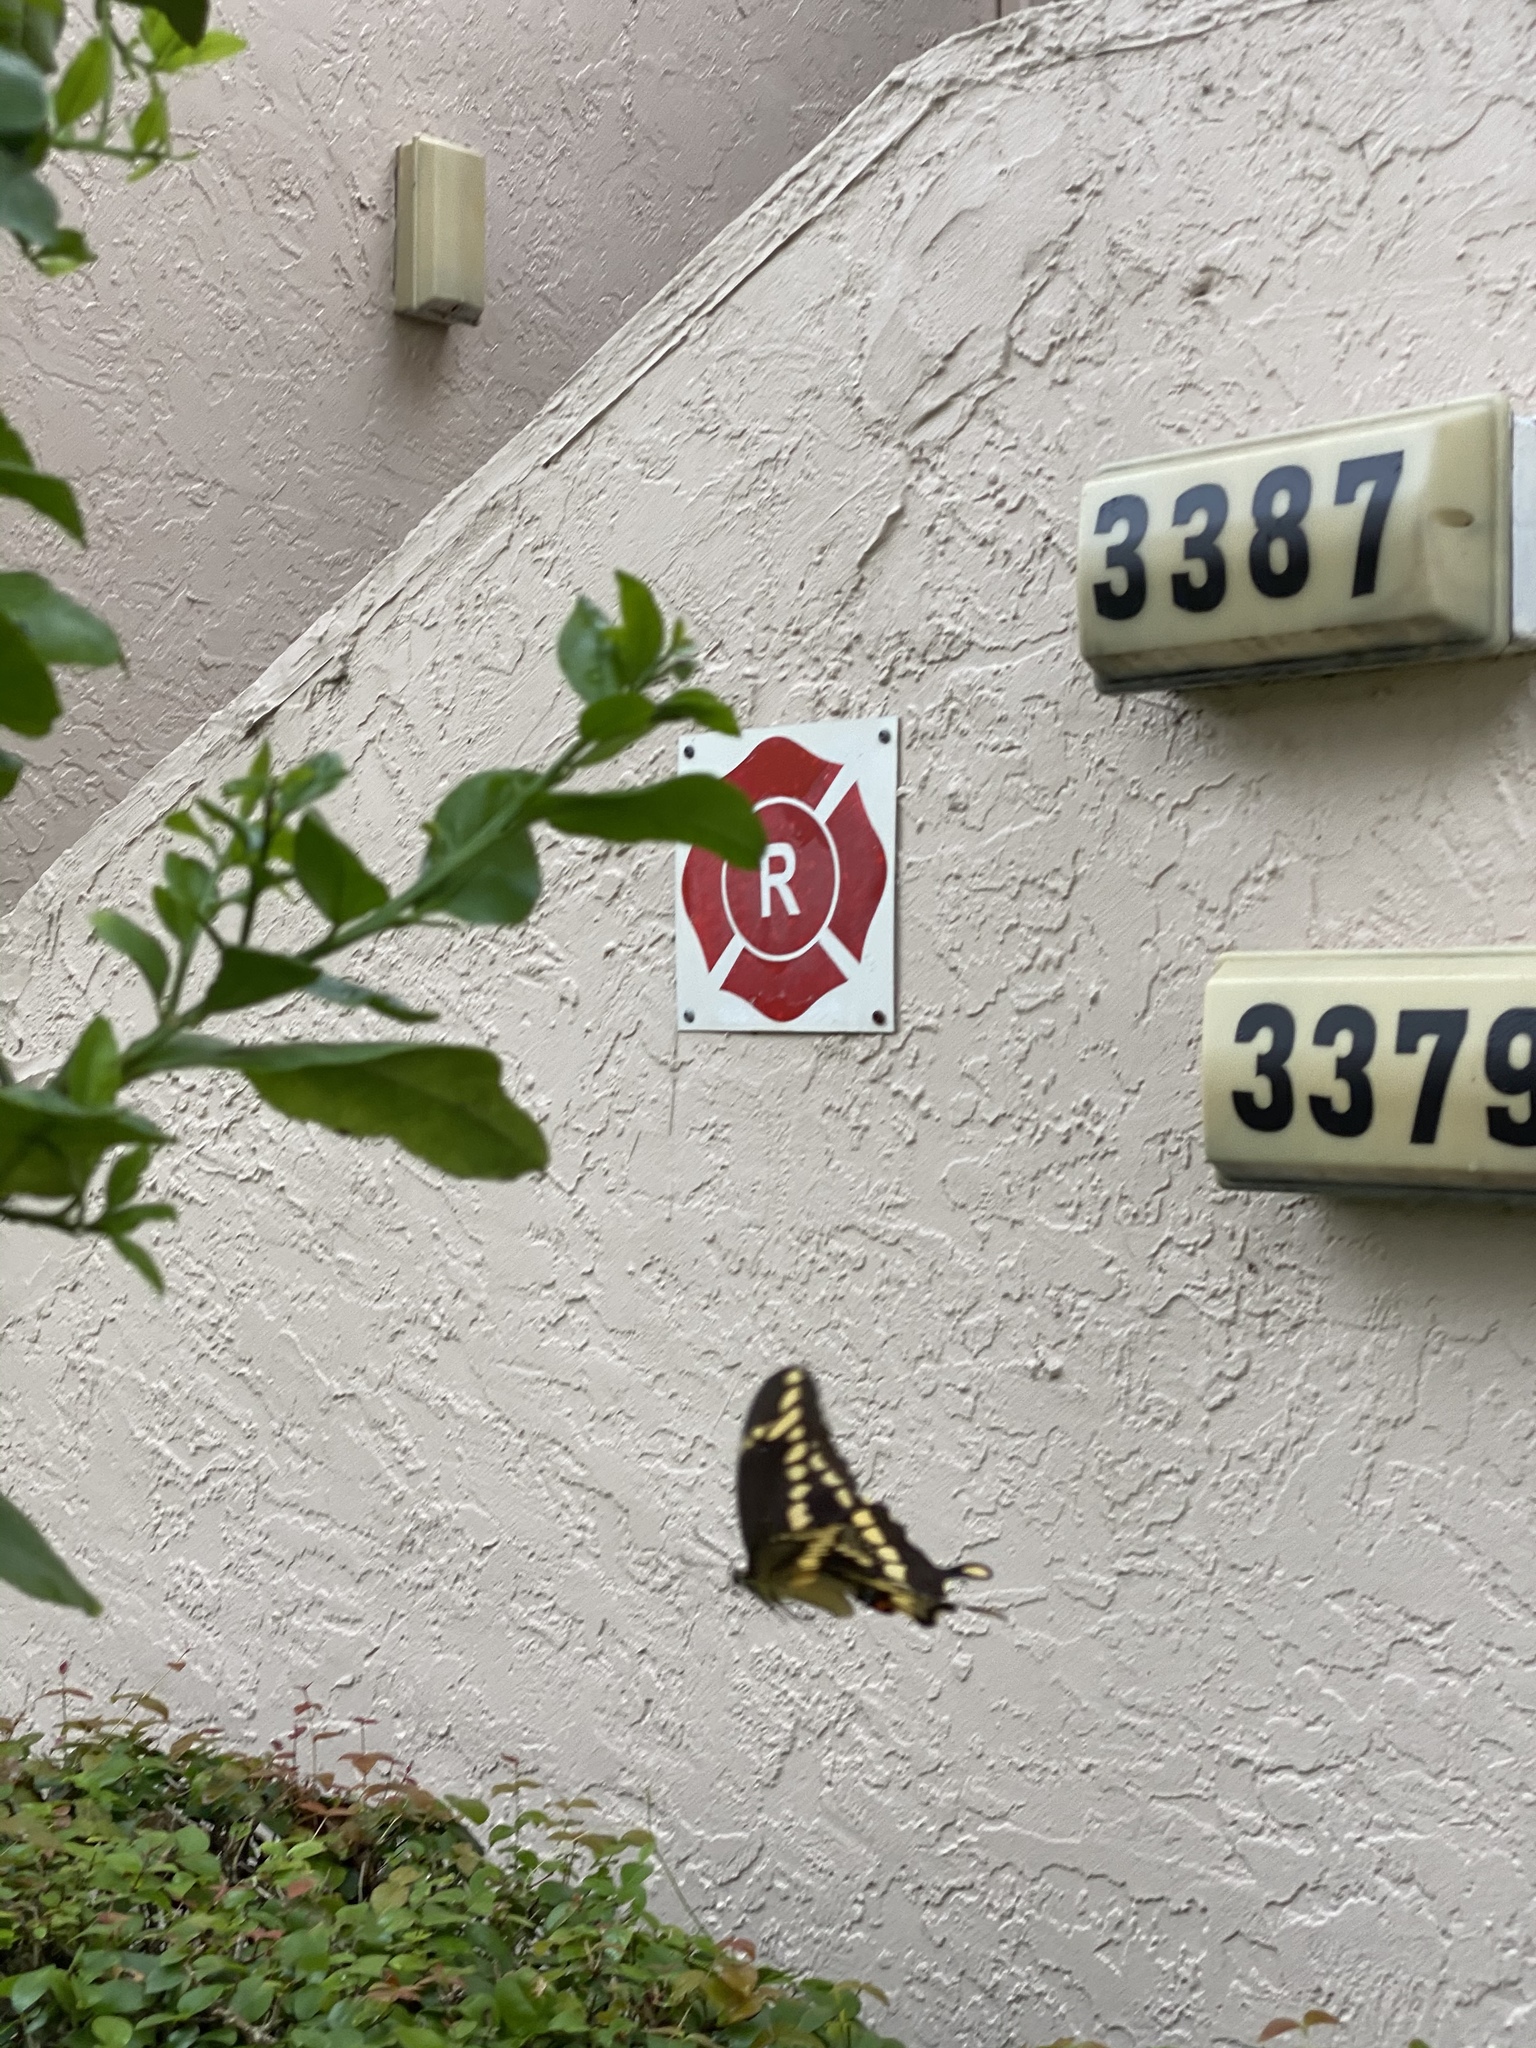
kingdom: Animalia
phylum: Arthropoda
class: Insecta
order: Lepidoptera
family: Papilionidae
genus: Papilio
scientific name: Papilio cresphontes
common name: Giant swallowtail
